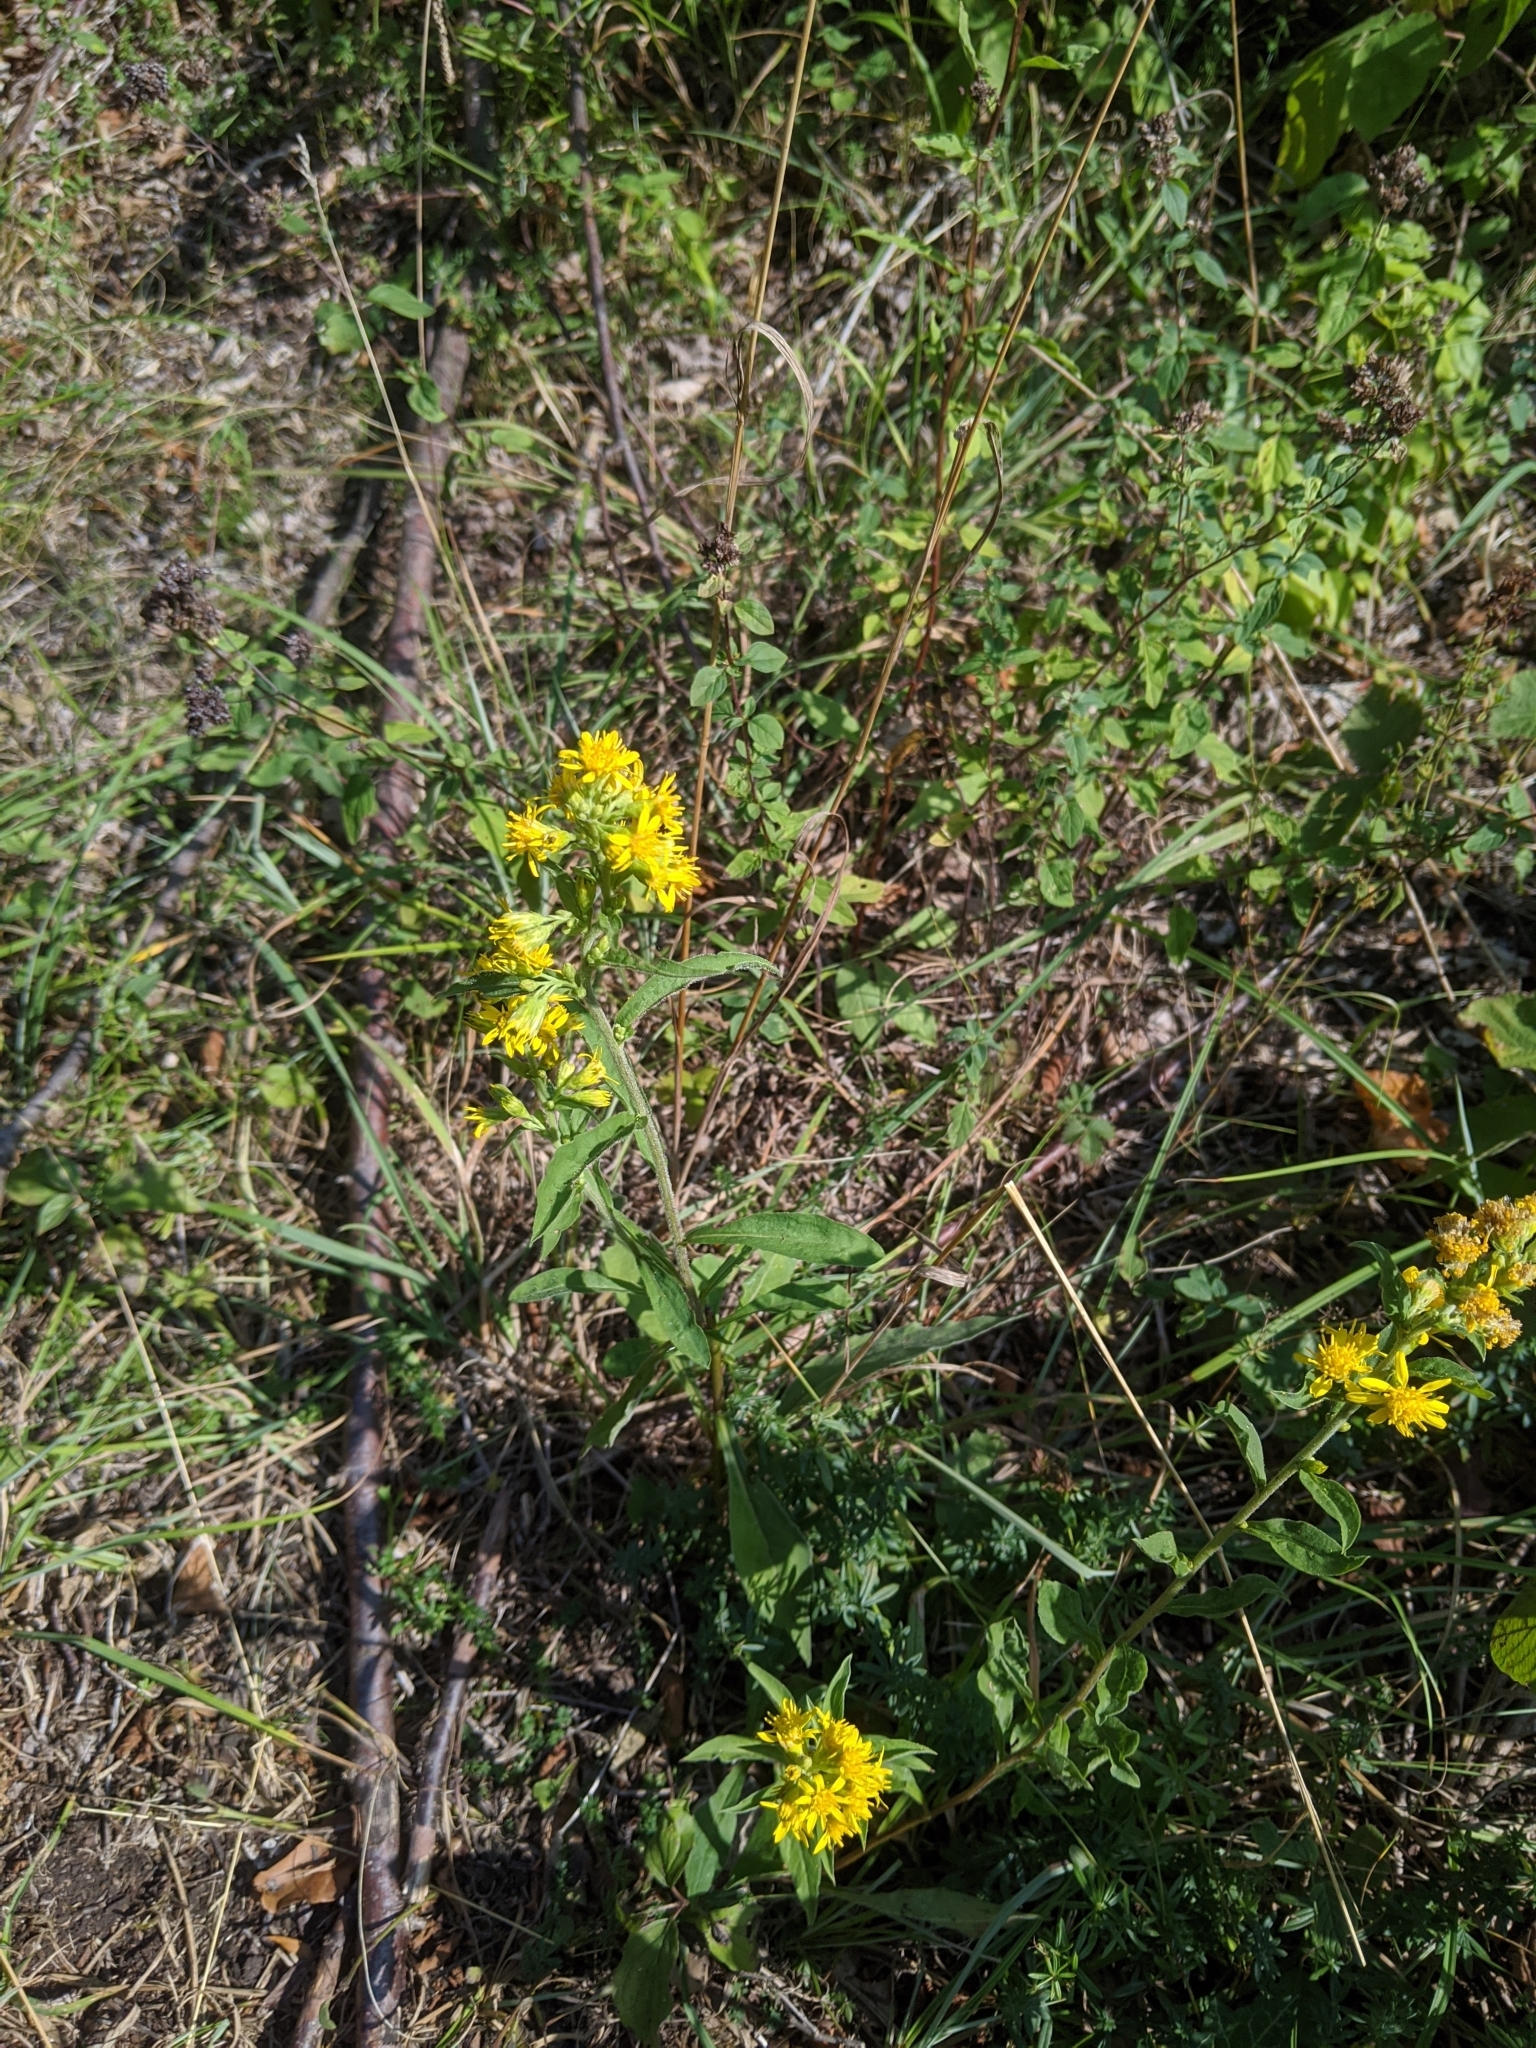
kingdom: Plantae
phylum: Tracheophyta
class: Magnoliopsida
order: Asterales
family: Asteraceae
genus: Solidago
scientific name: Solidago virgaurea
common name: Goldenrod
